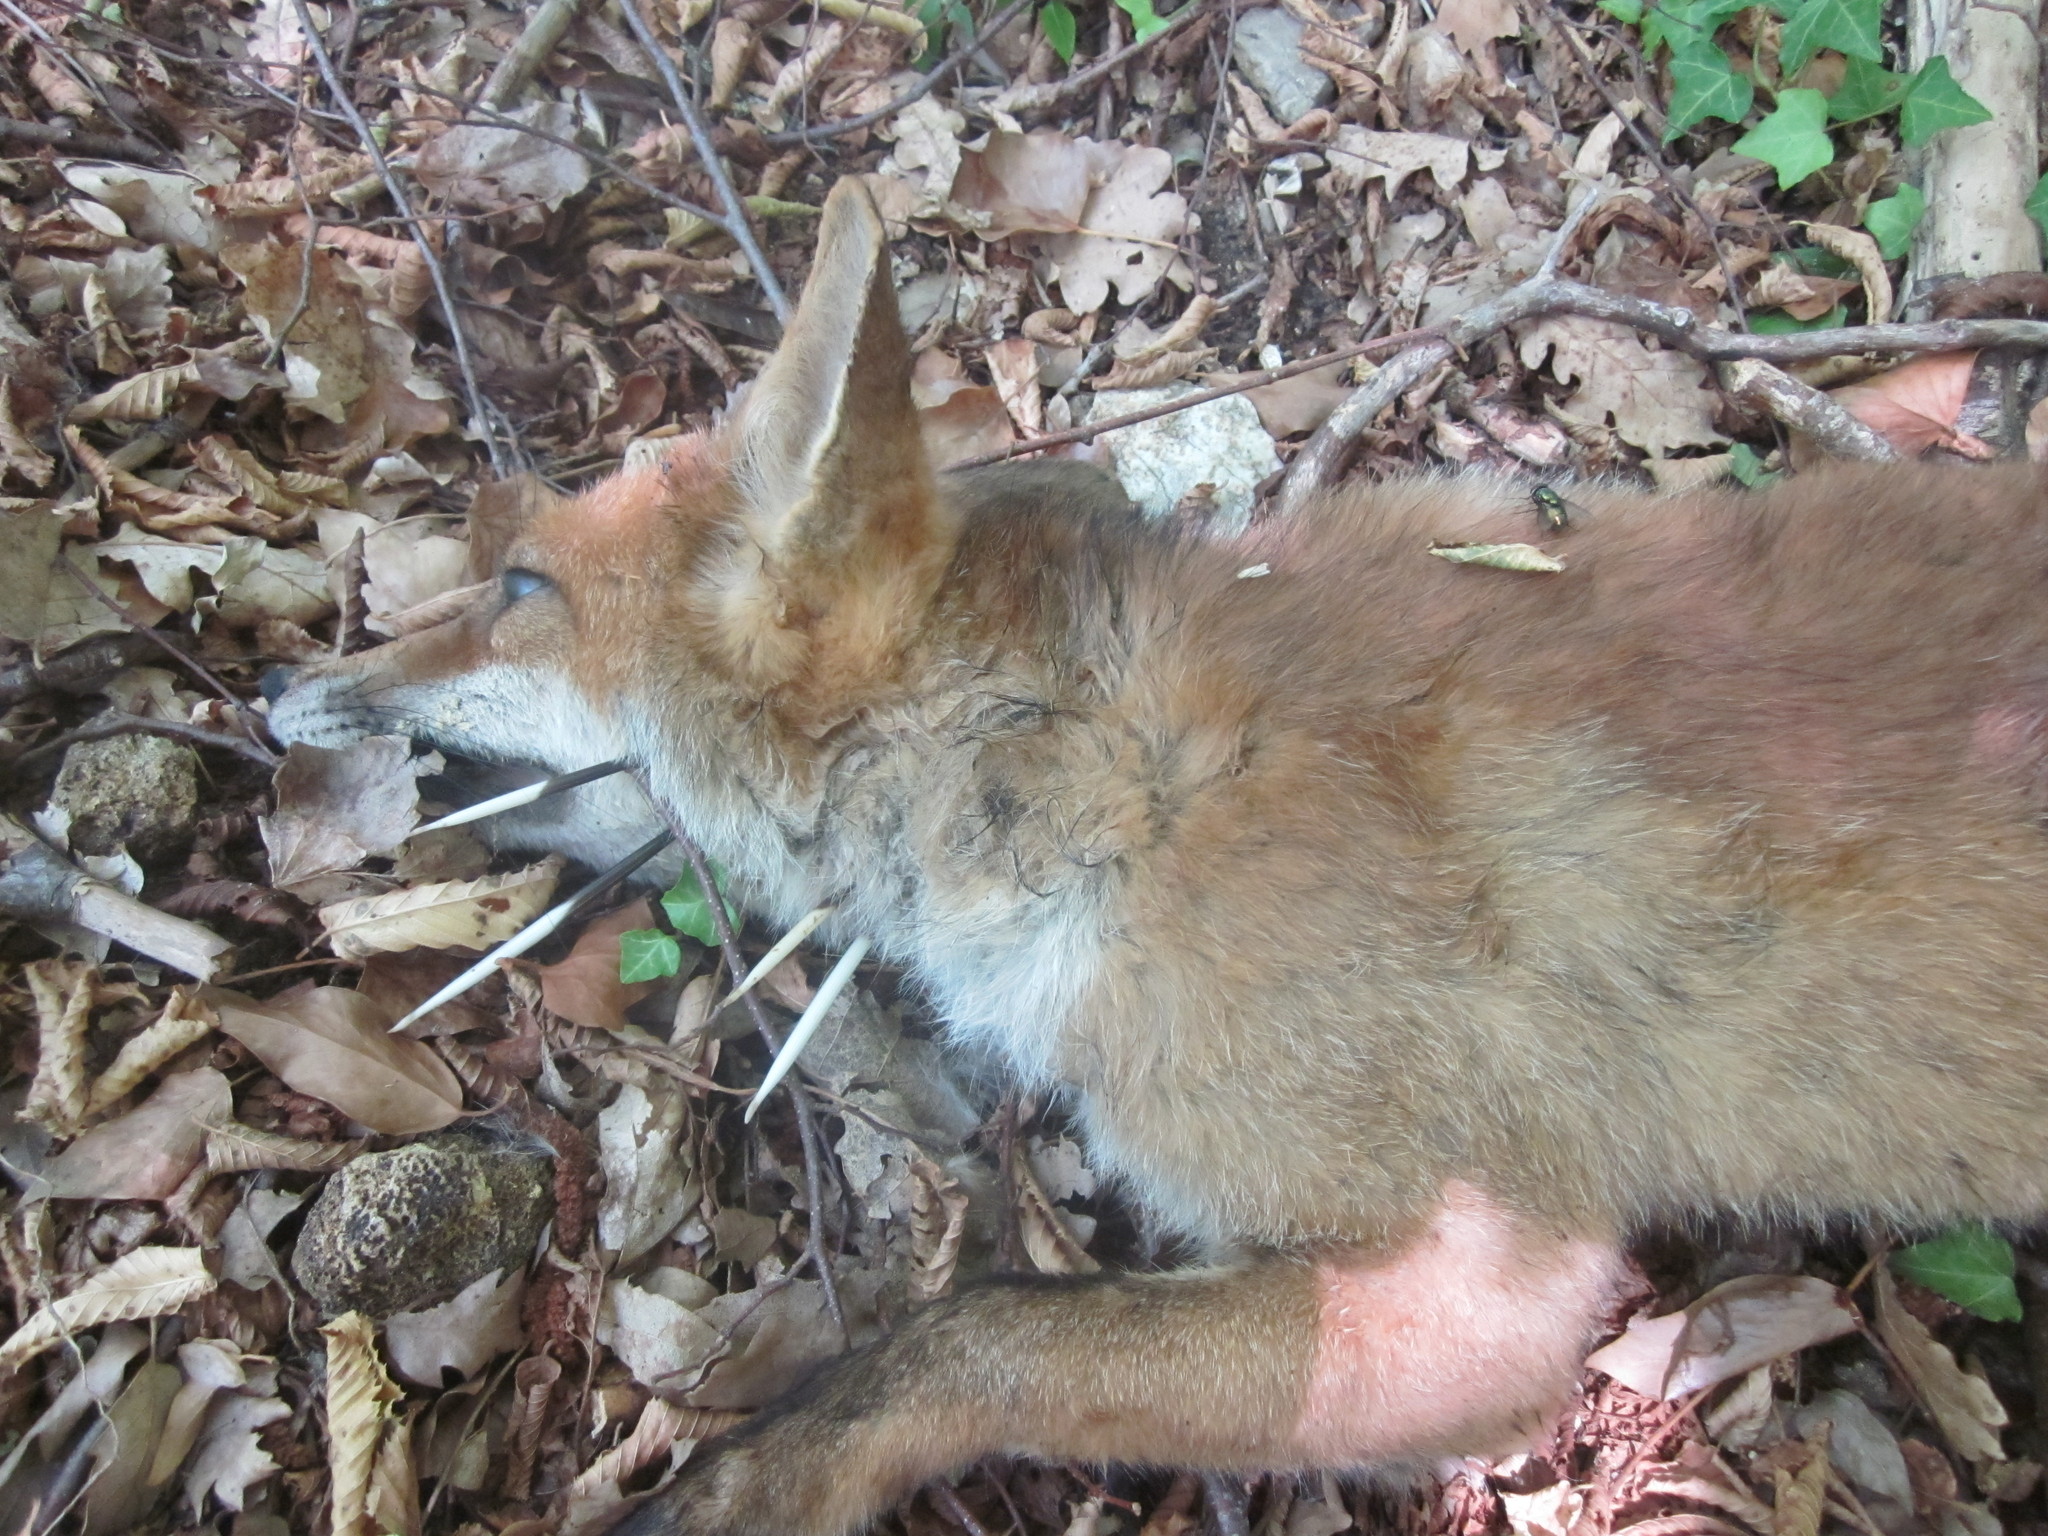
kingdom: Animalia
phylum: Chordata
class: Mammalia
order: Rodentia
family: Hystricidae
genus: Hystrix
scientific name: Hystrix cristata
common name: Crested porcupine
